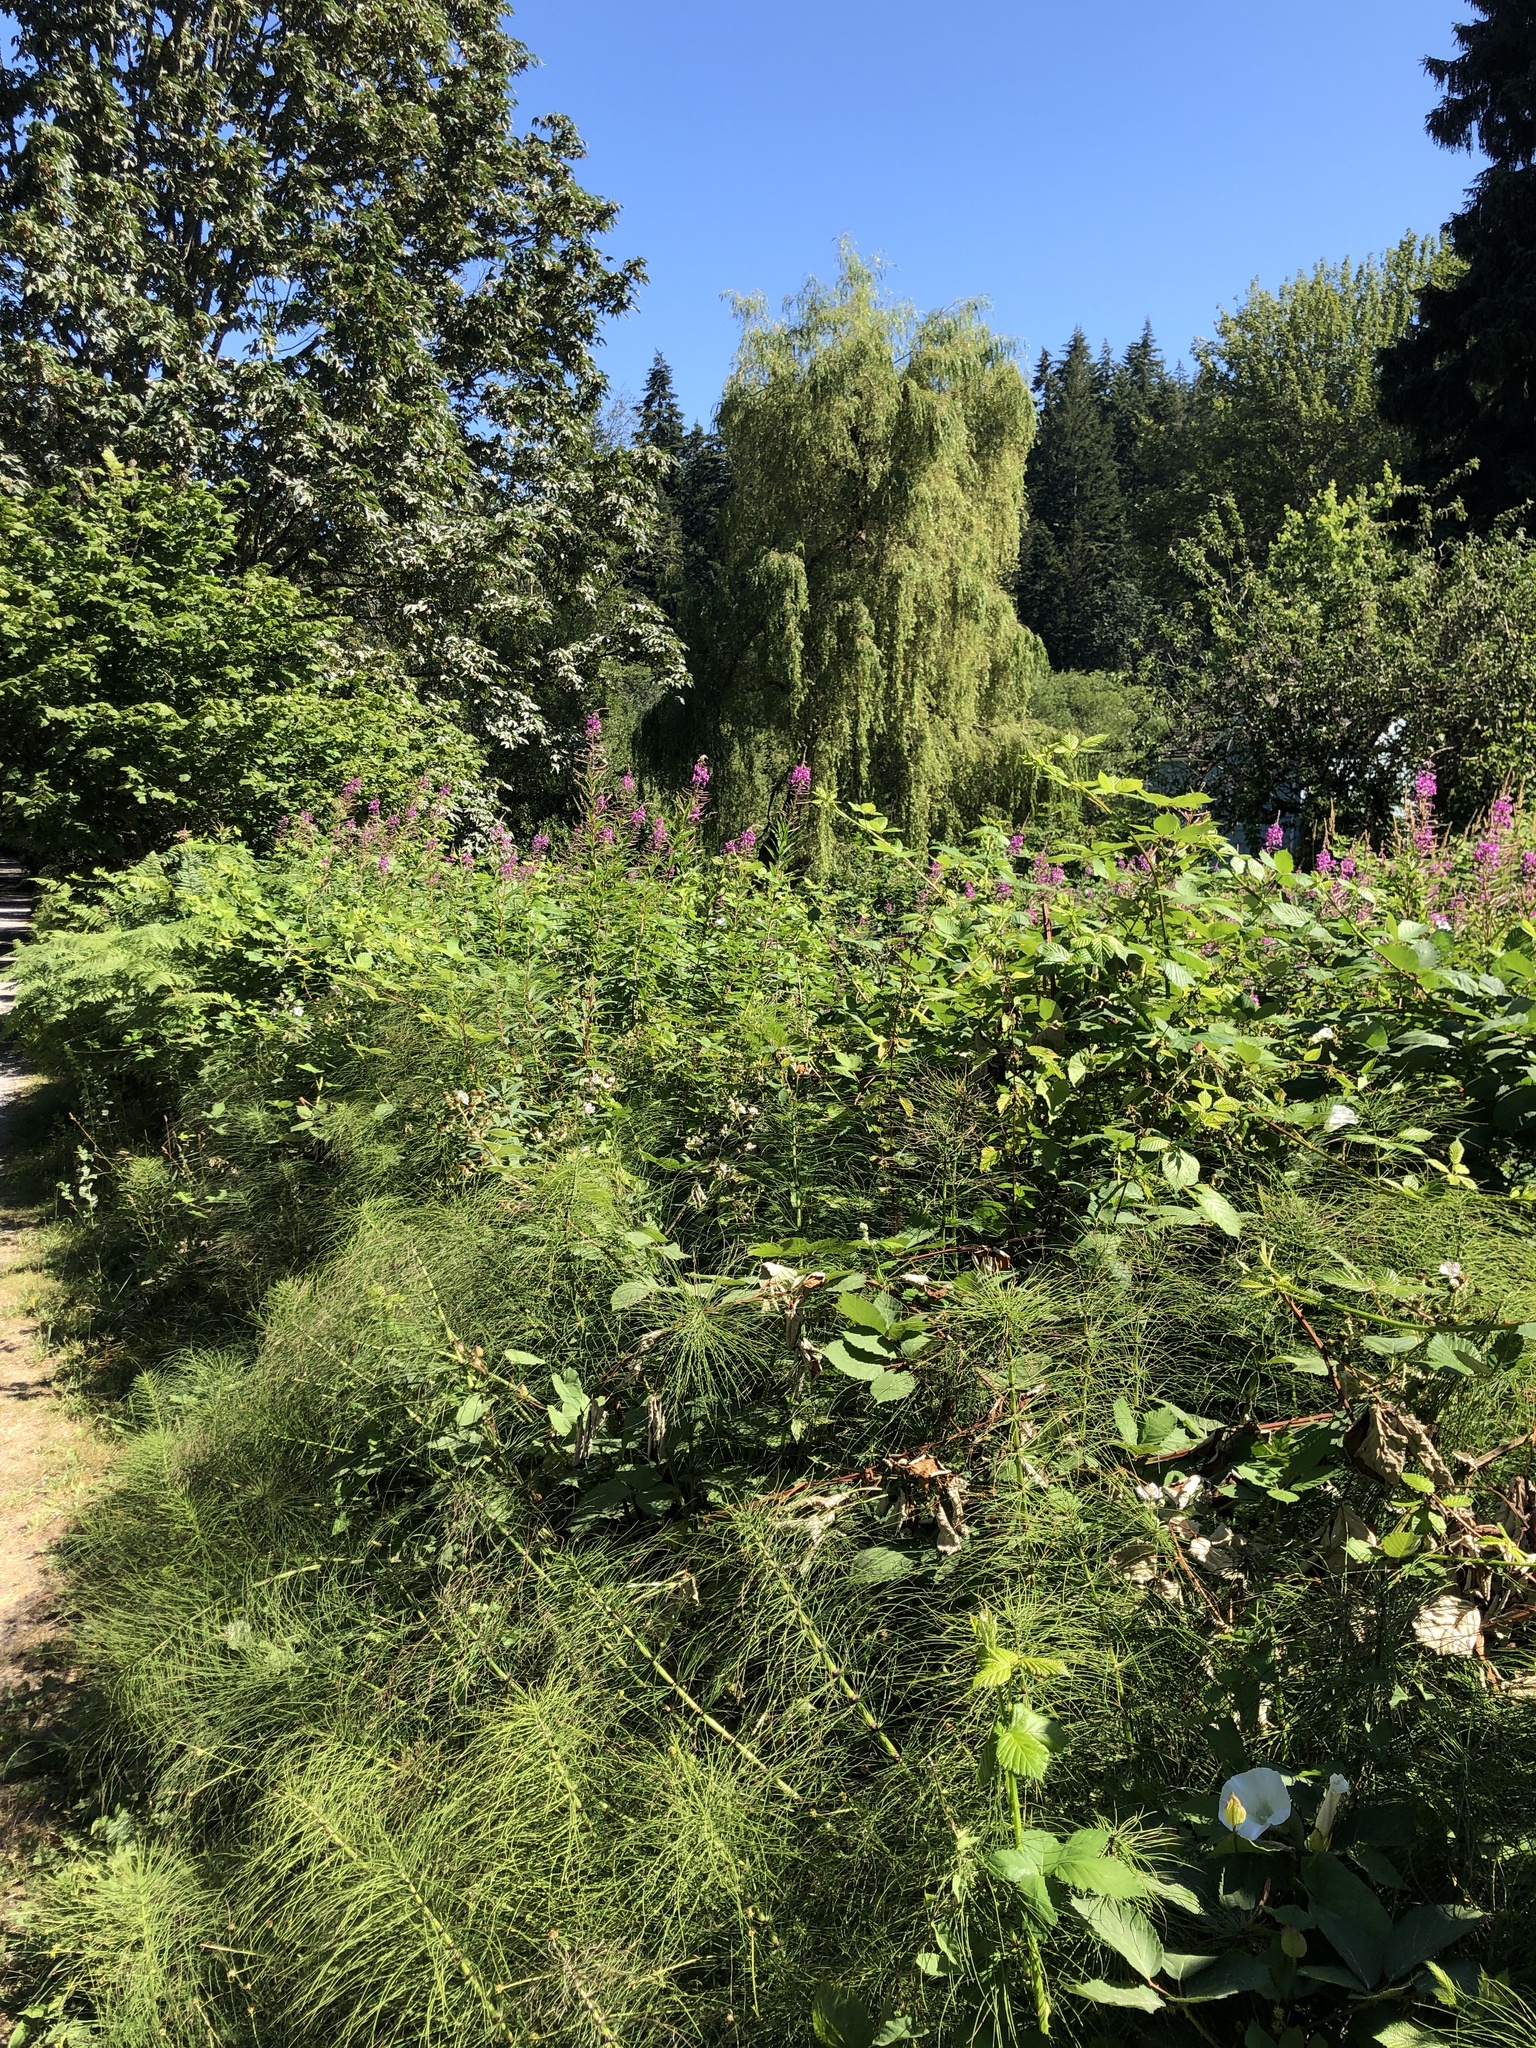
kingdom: Plantae
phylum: Tracheophyta
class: Magnoliopsida
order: Myrtales
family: Onagraceae
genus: Chamaenerion
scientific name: Chamaenerion angustifolium
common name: Fireweed
